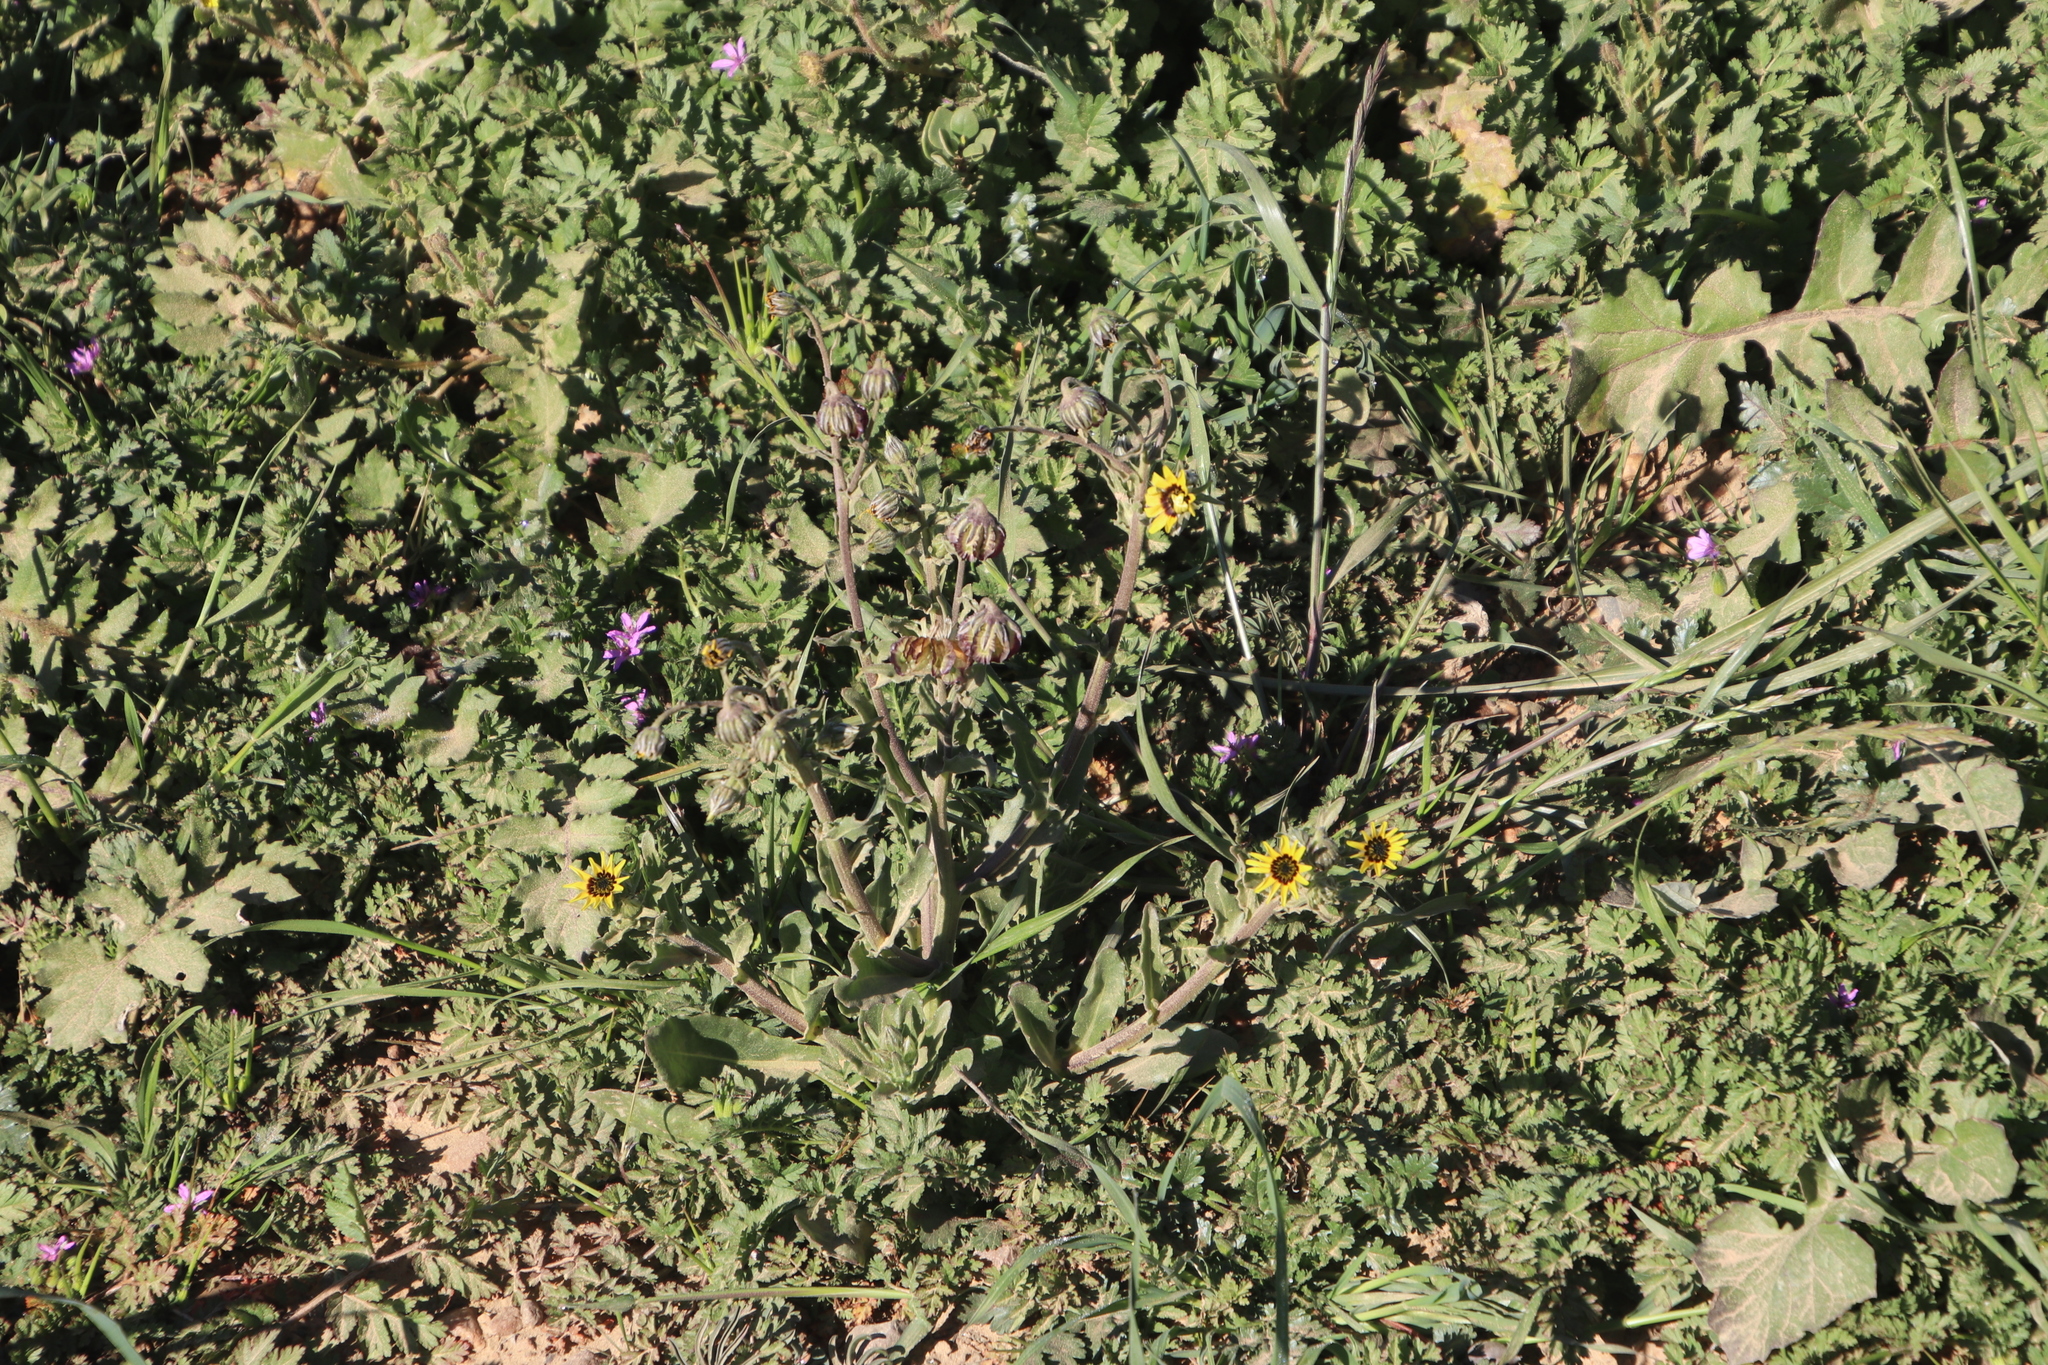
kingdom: Plantae
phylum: Tracheophyta
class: Magnoliopsida
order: Asterales
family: Asteraceae
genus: Osteospermum
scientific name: Osteospermum monstrosum
